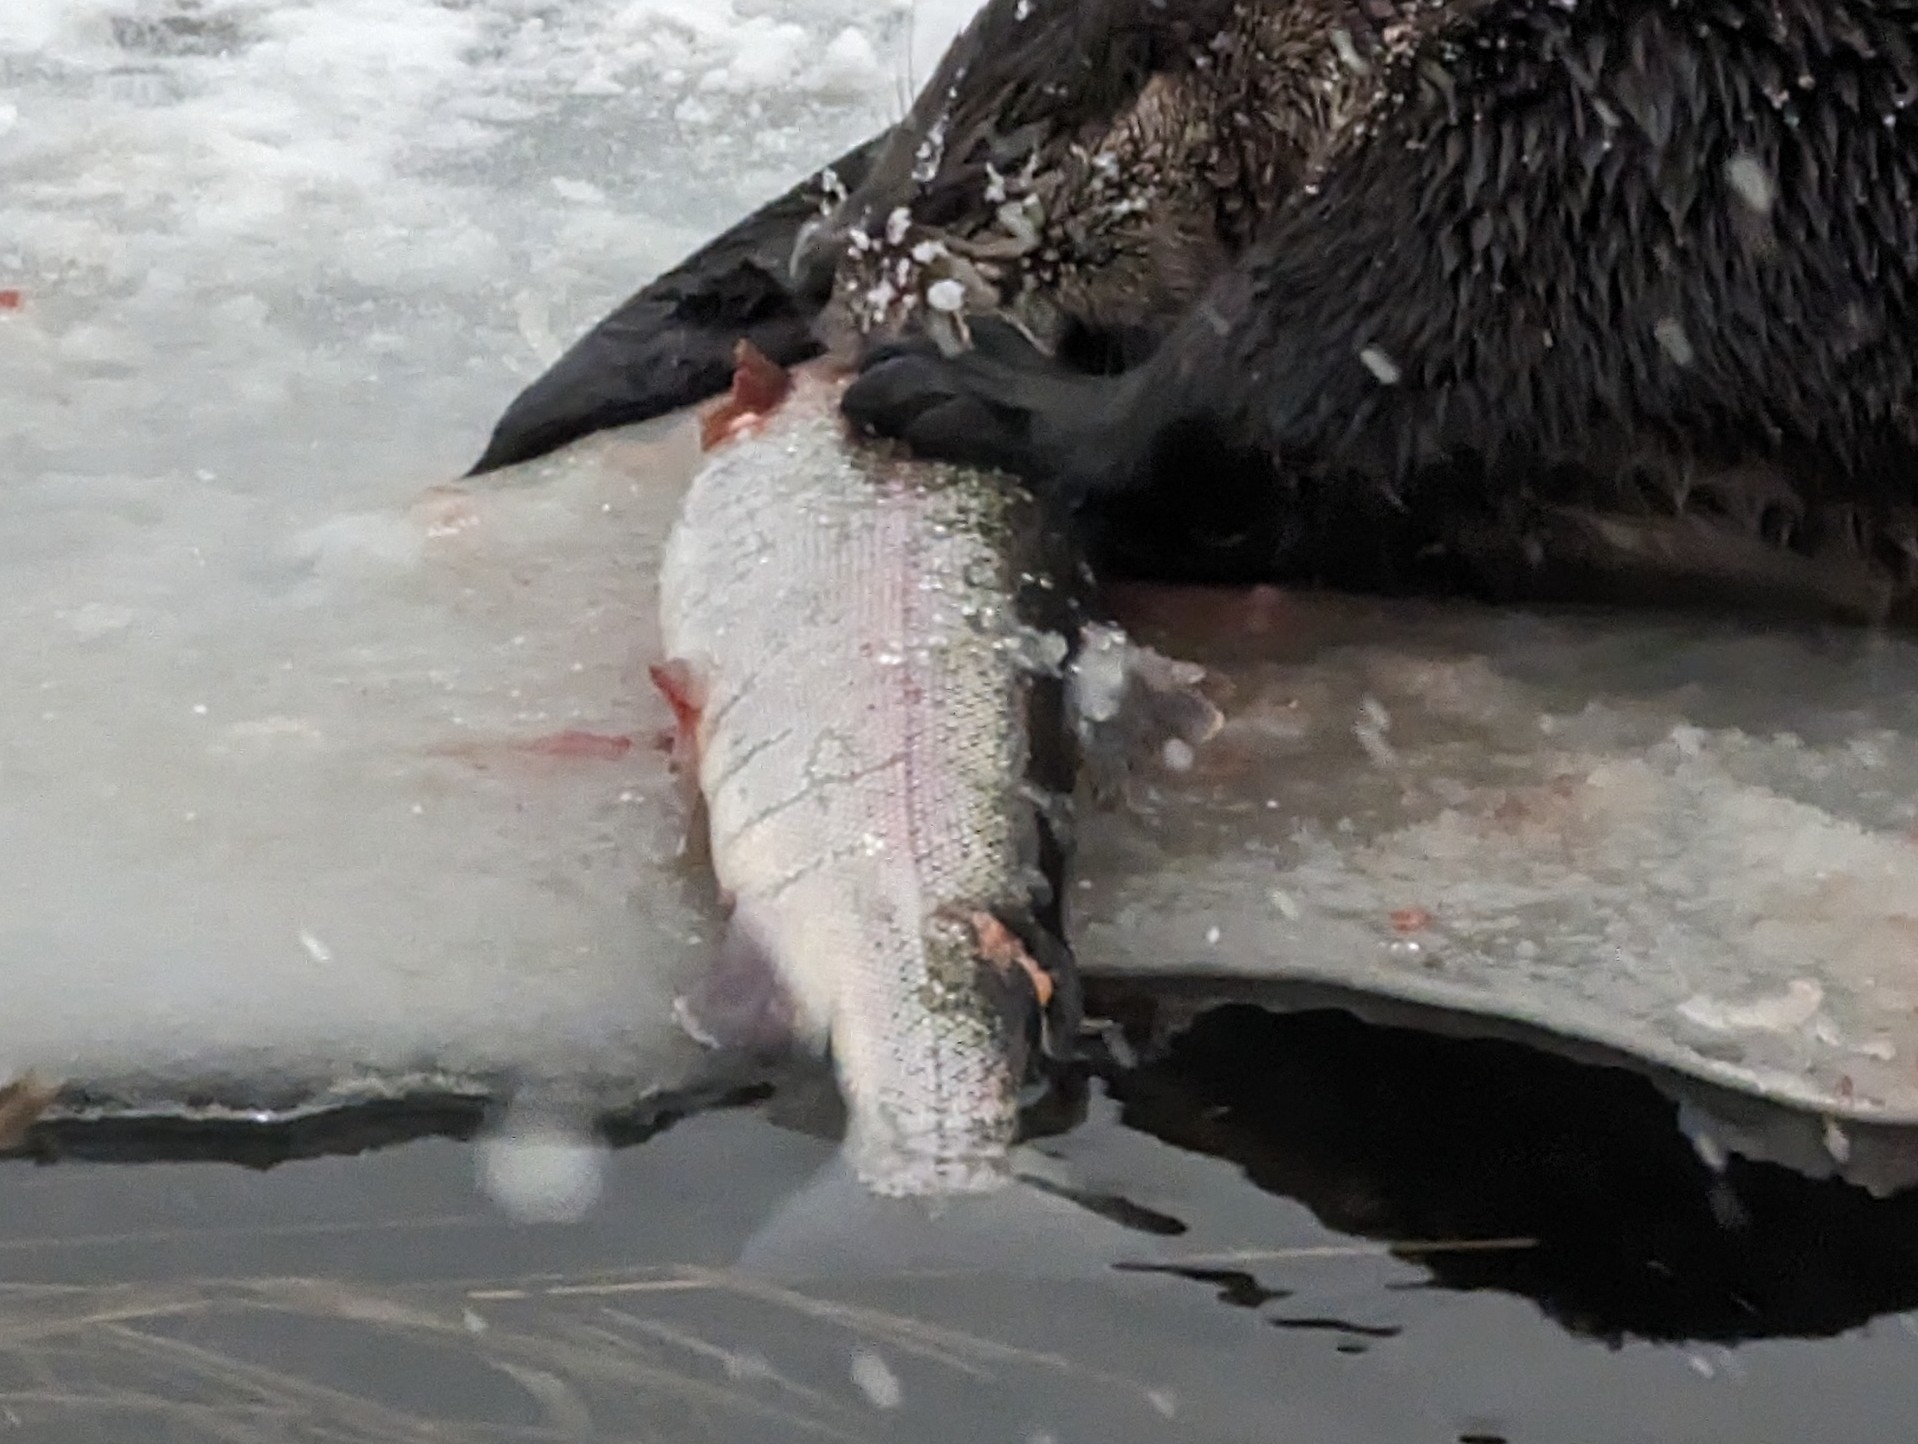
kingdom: Animalia
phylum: Chordata
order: Salmoniformes
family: Salmonidae
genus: Oncorhynchus
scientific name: Oncorhynchus mykiss
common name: Rainbow trout
